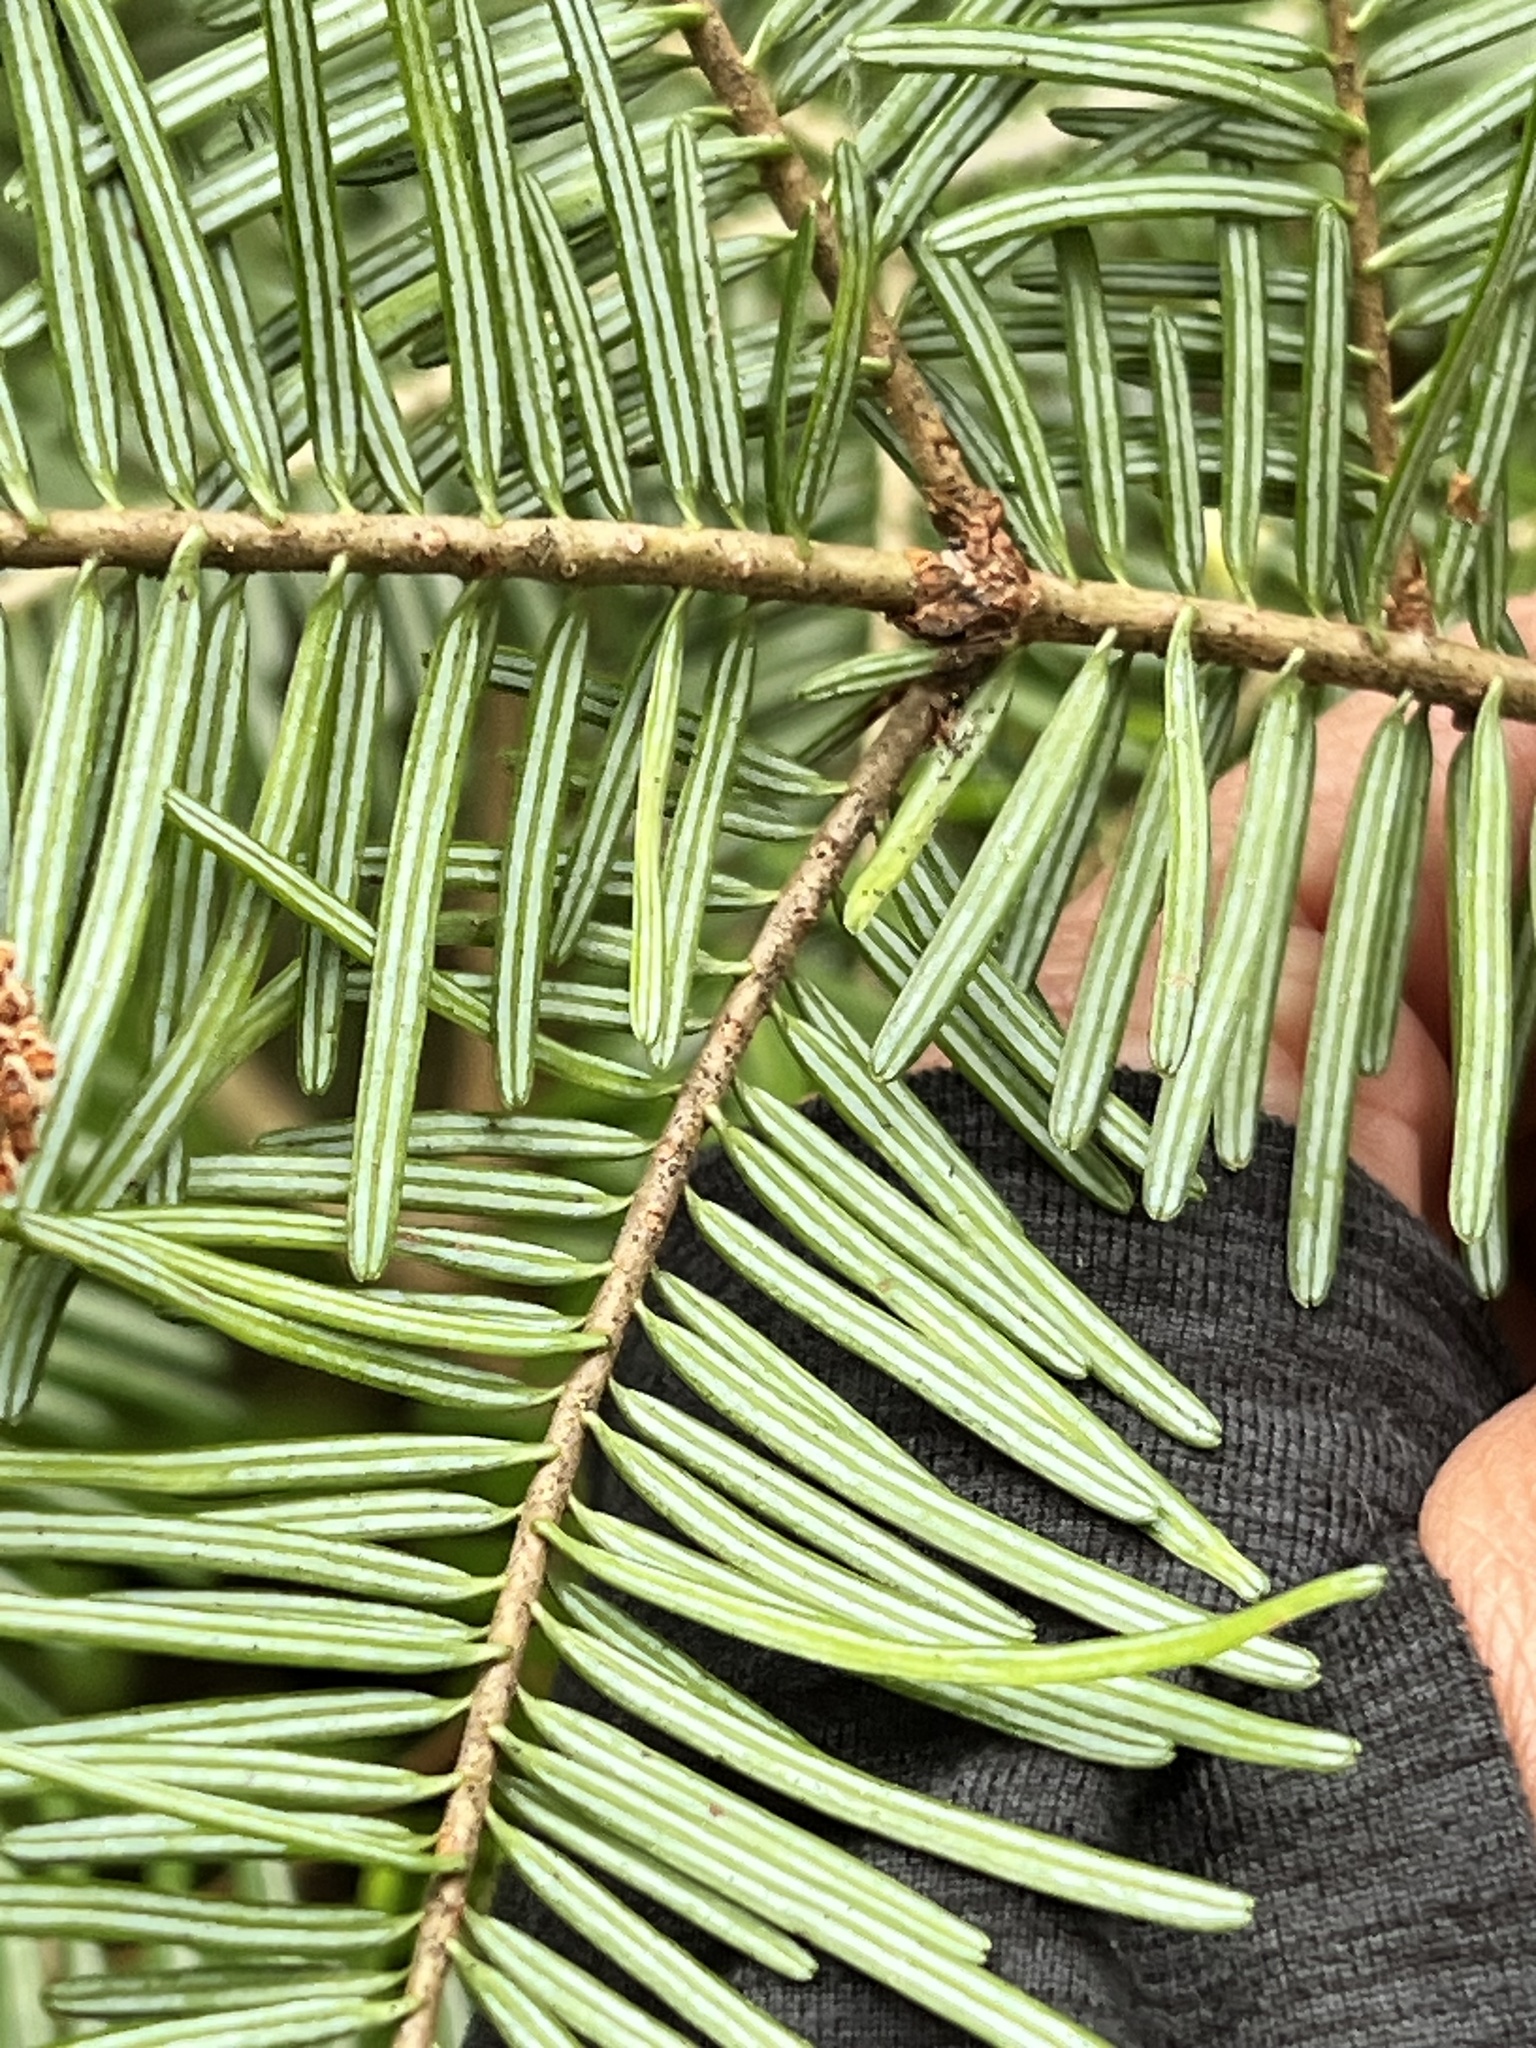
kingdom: Plantae
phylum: Tracheophyta
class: Pinopsida
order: Pinales
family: Pinaceae
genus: Abies
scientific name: Abies grandis
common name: Giant fir
